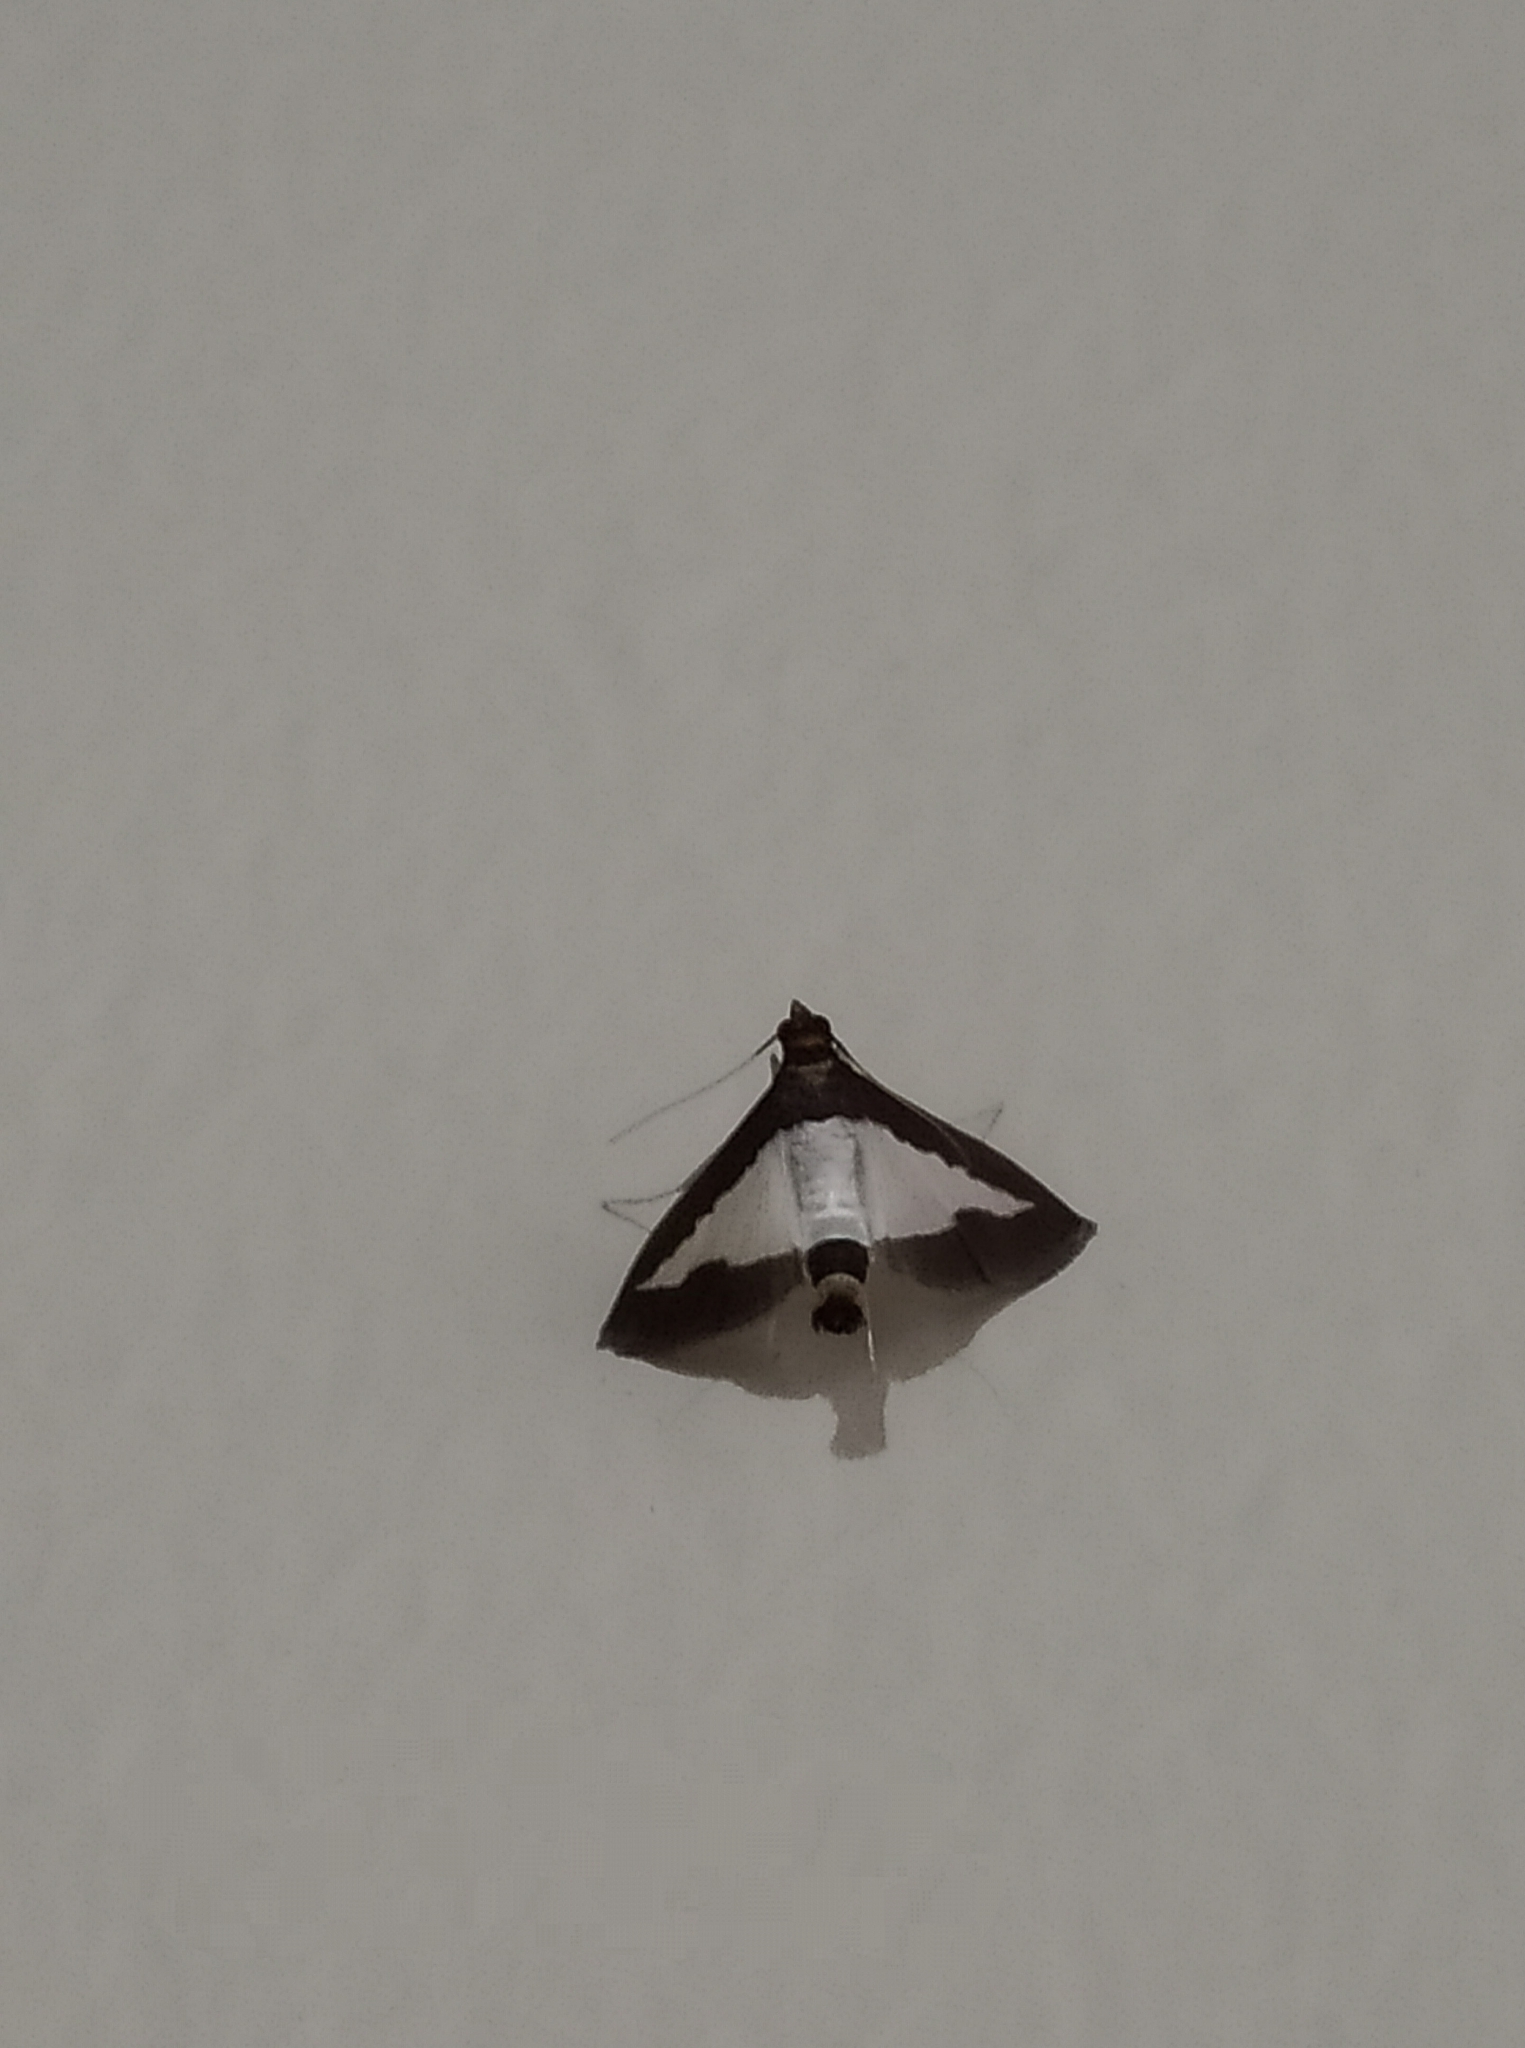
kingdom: Animalia
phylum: Arthropoda
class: Insecta
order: Lepidoptera
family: Crambidae
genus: Diaphania
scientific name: Diaphania indica
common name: Cucumber moth
